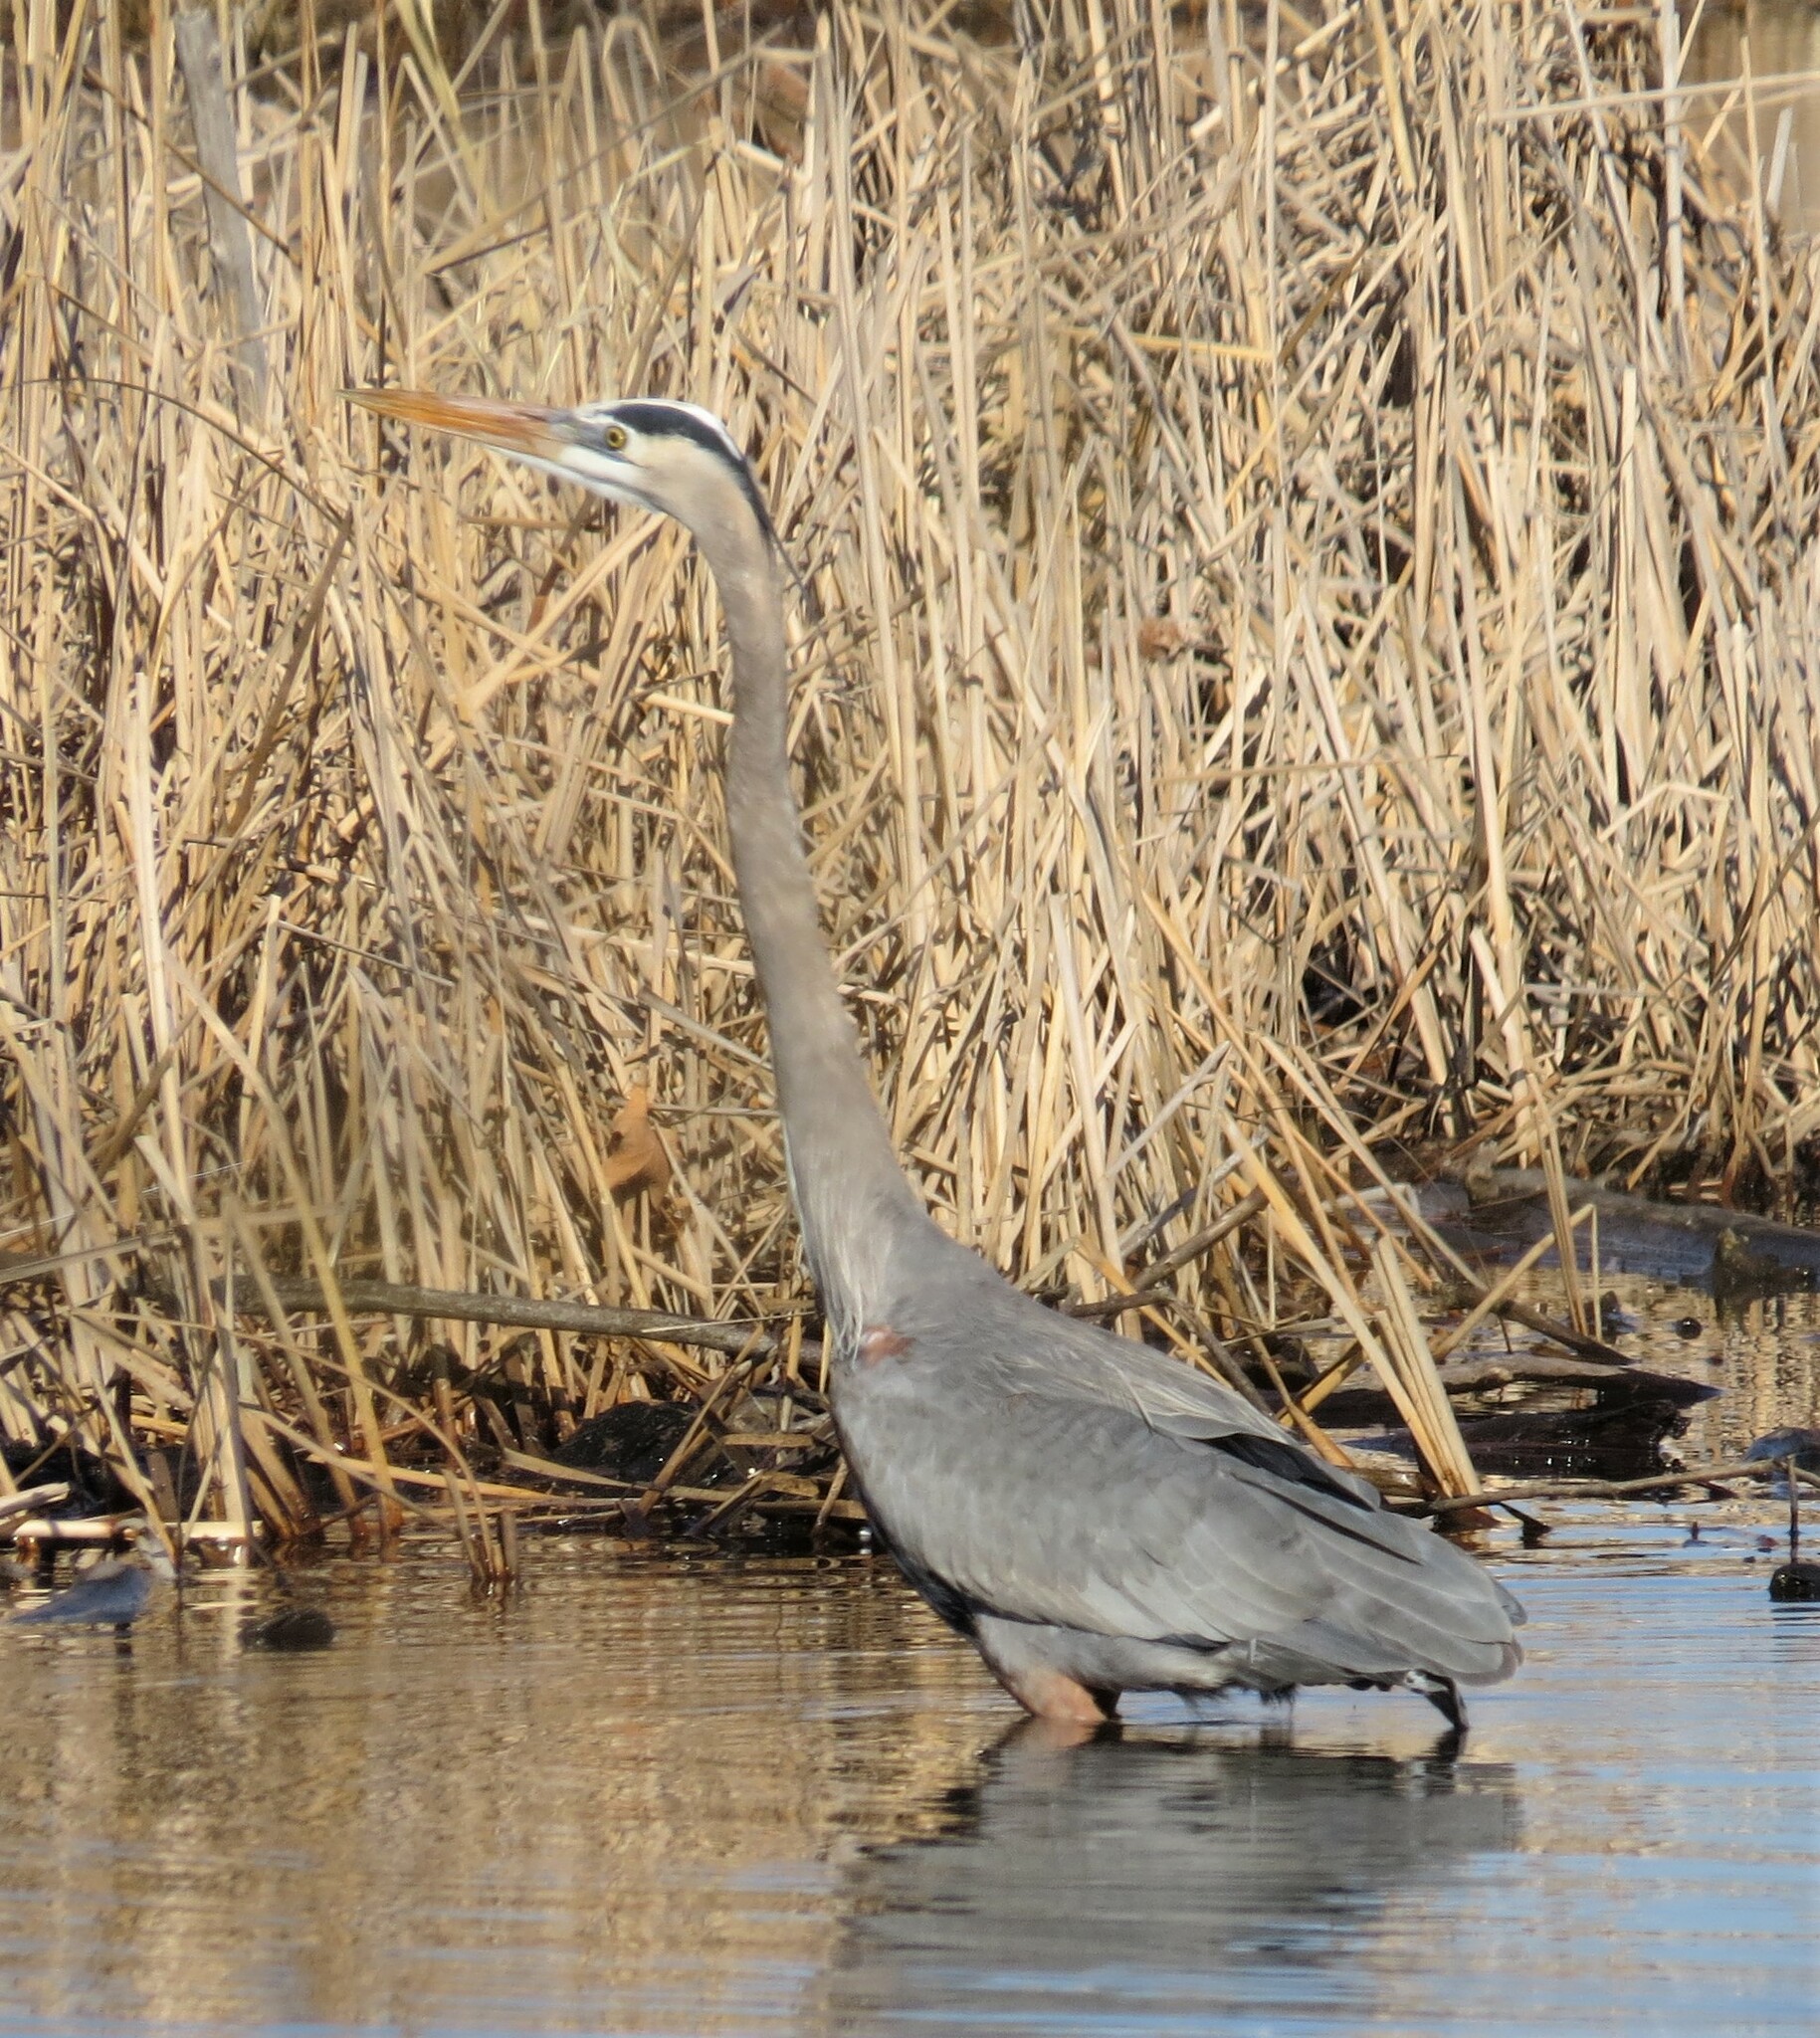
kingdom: Animalia
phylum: Chordata
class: Aves
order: Pelecaniformes
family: Ardeidae
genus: Ardea
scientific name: Ardea herodias
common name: Great blue heron
